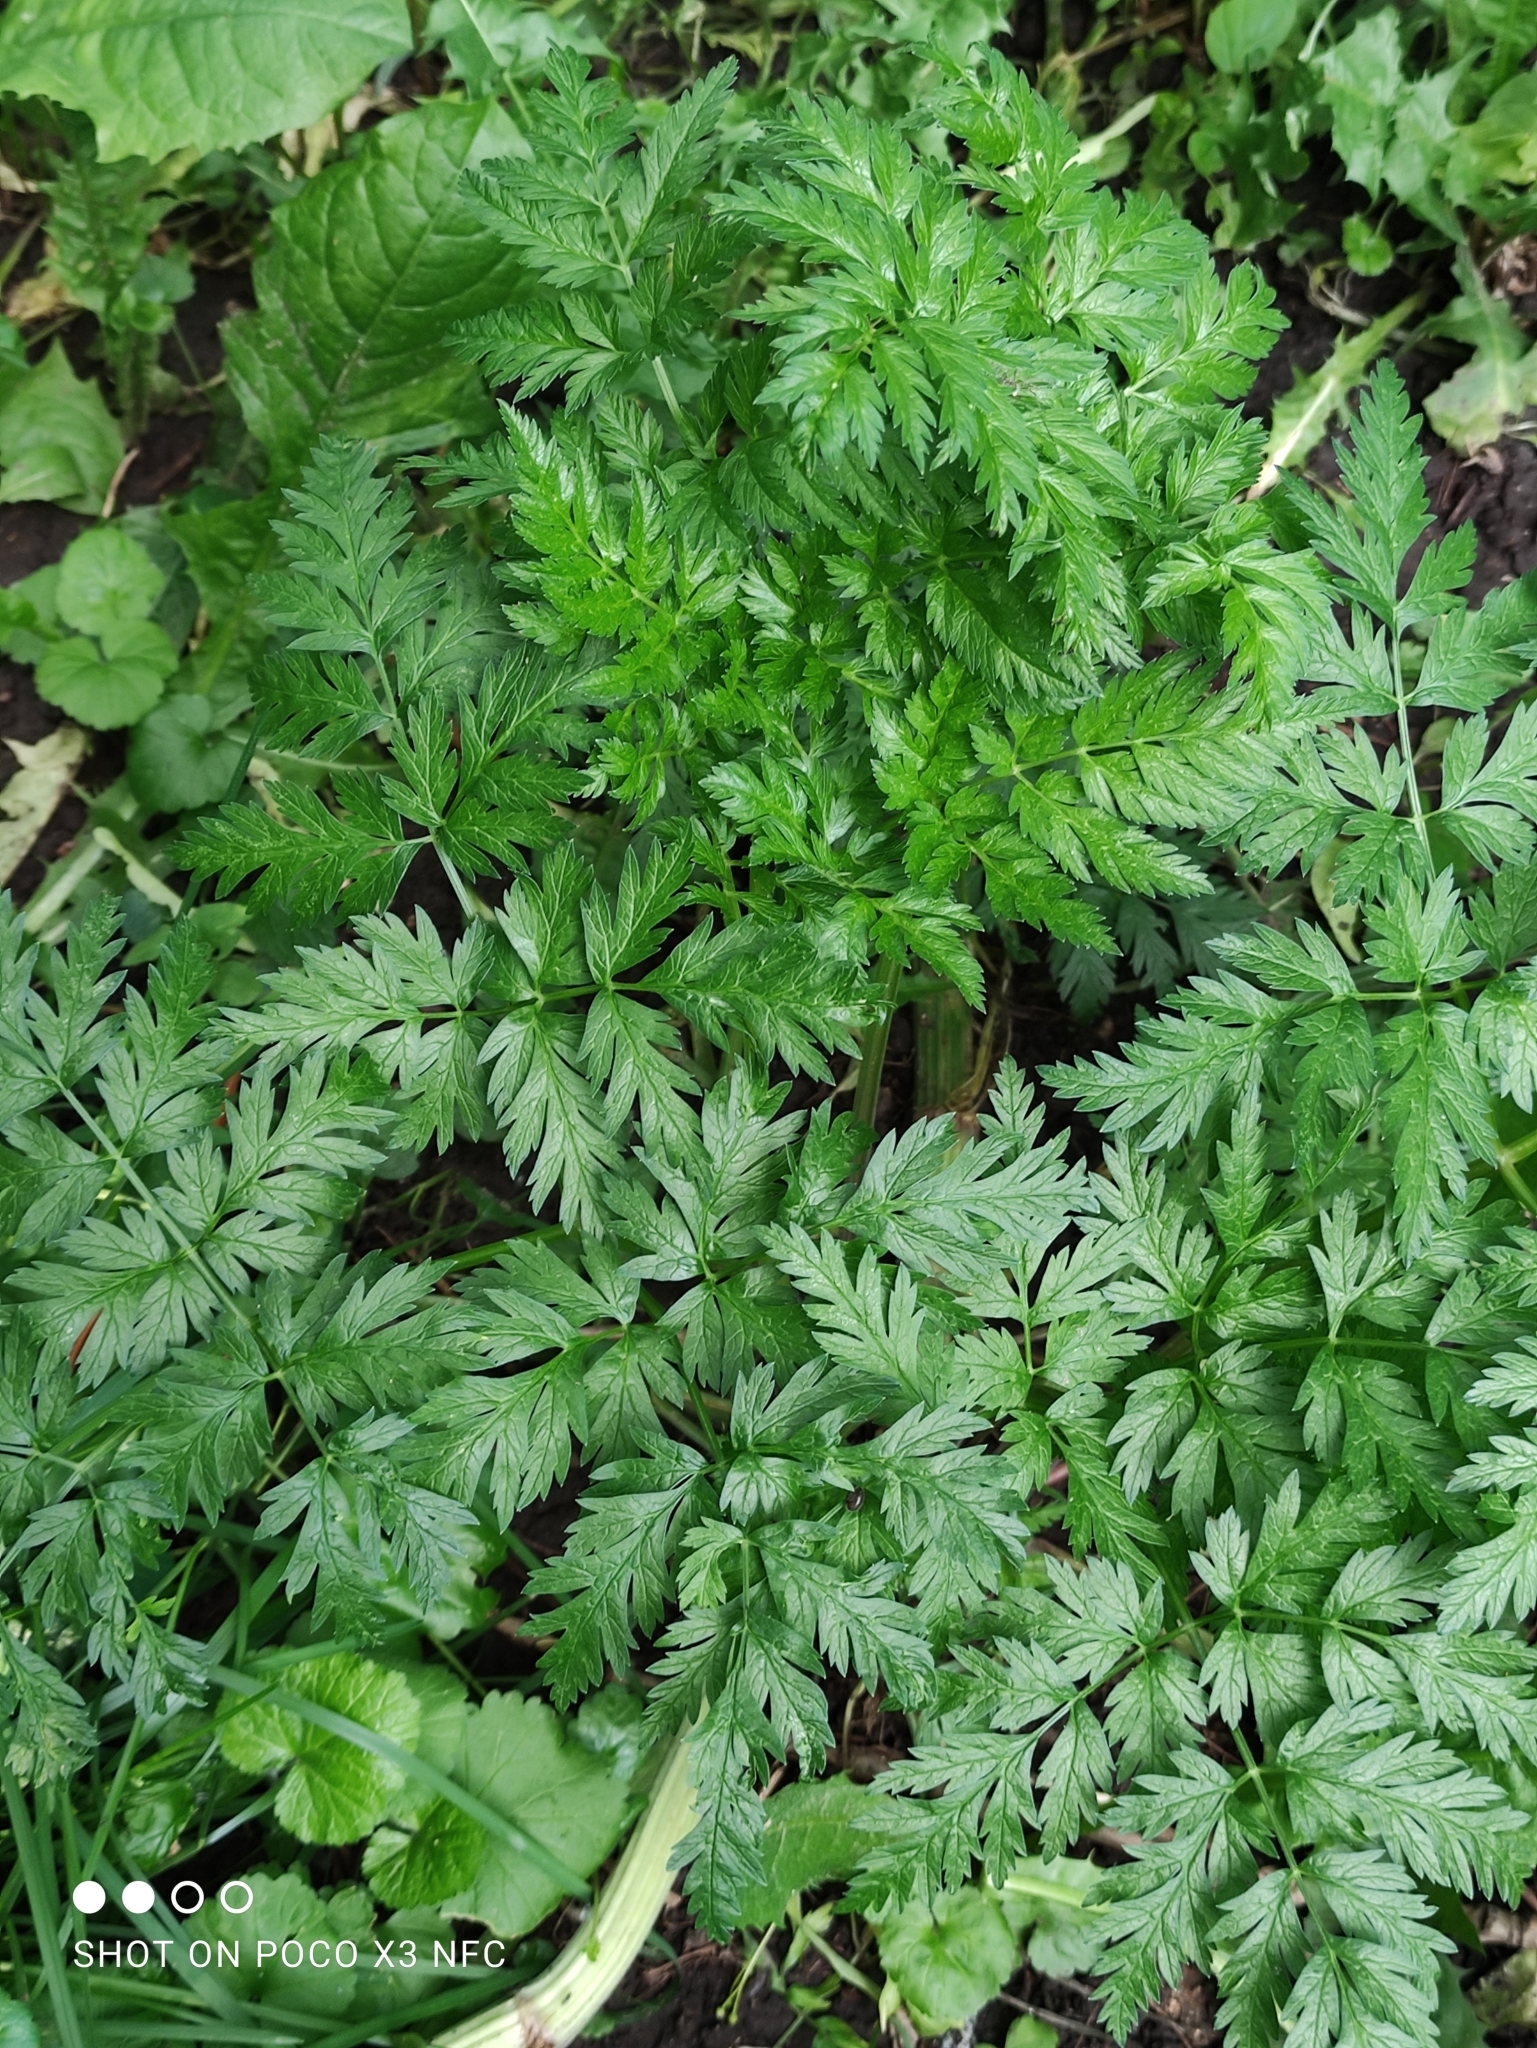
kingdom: Plantae
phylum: Tracheophyta
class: Magnoliopsida
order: Apiales
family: Apiaceae
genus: Anthriscus
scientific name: Anthriscus sylvestris
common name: Cow parsley
